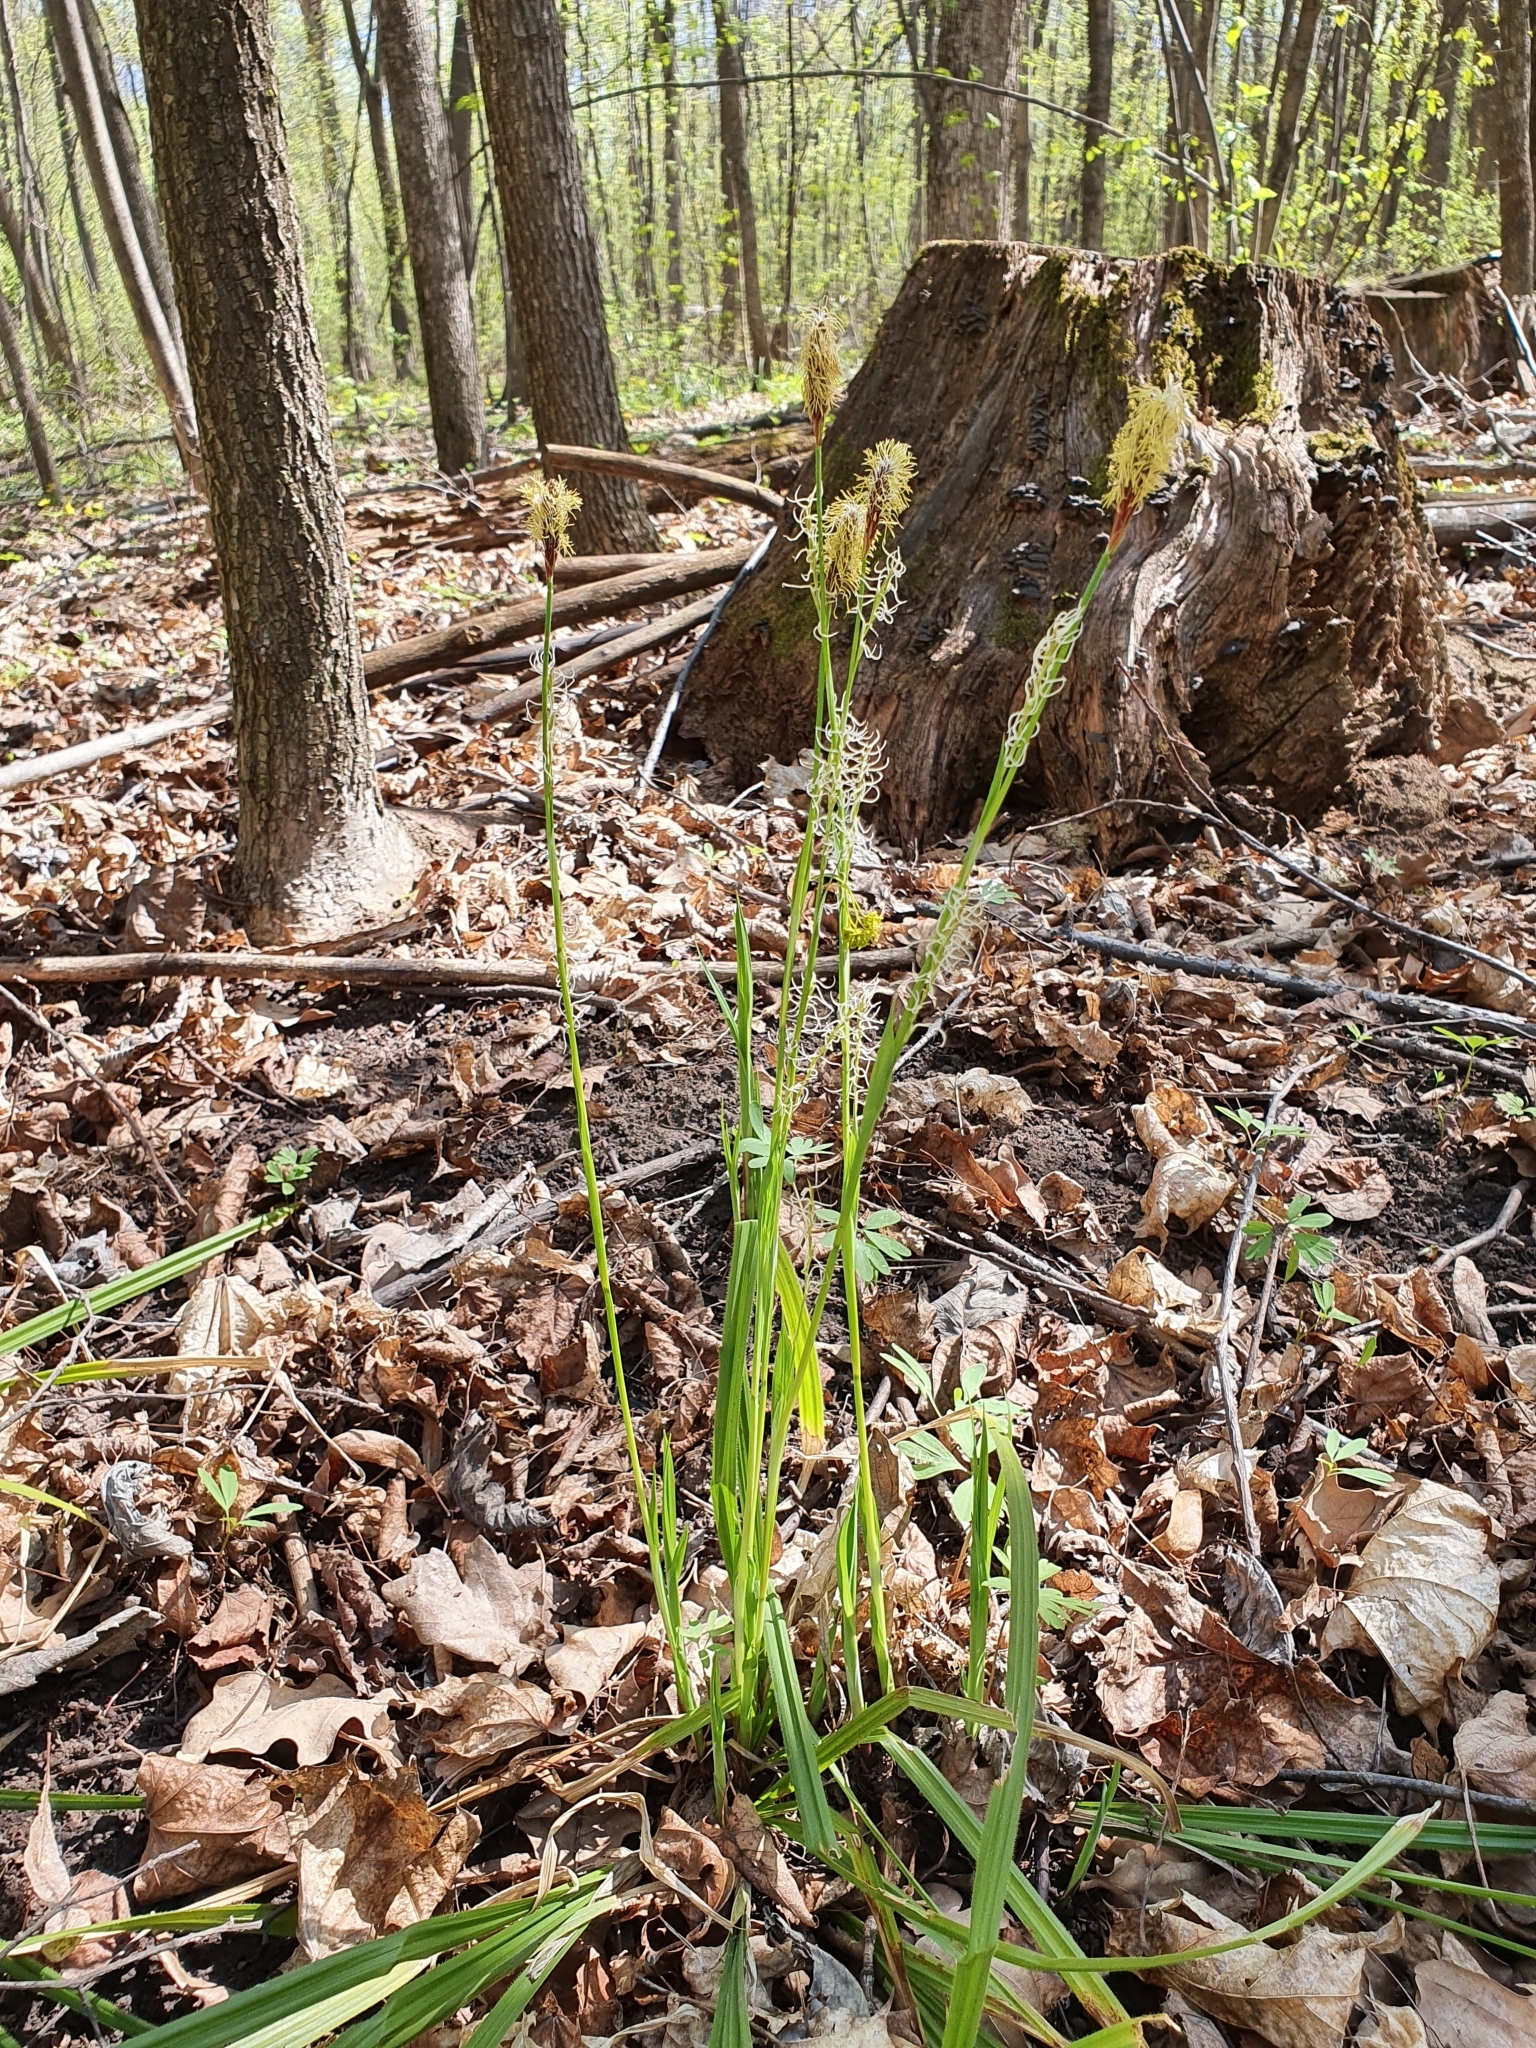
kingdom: Plantae
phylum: Tracheophyta
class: Liliopsida
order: Poales
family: Cyperaceae
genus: Carex
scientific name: Carex pilosa
